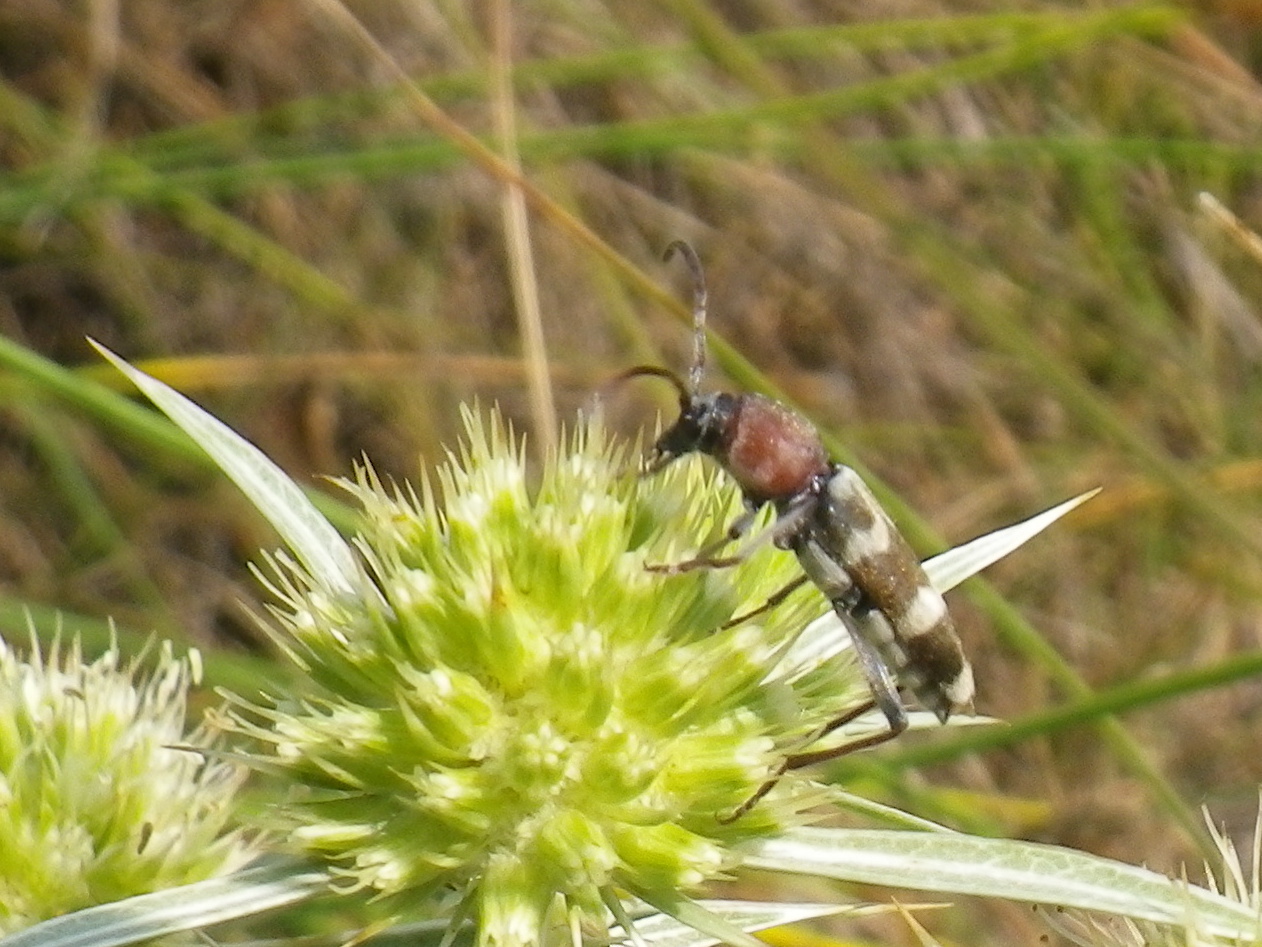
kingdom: Animalia
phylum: Arthropoda
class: Insecta
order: Coleoptera
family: Cerambycidae
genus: Chlorophorus
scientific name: Chlorophorus trifasciatus
